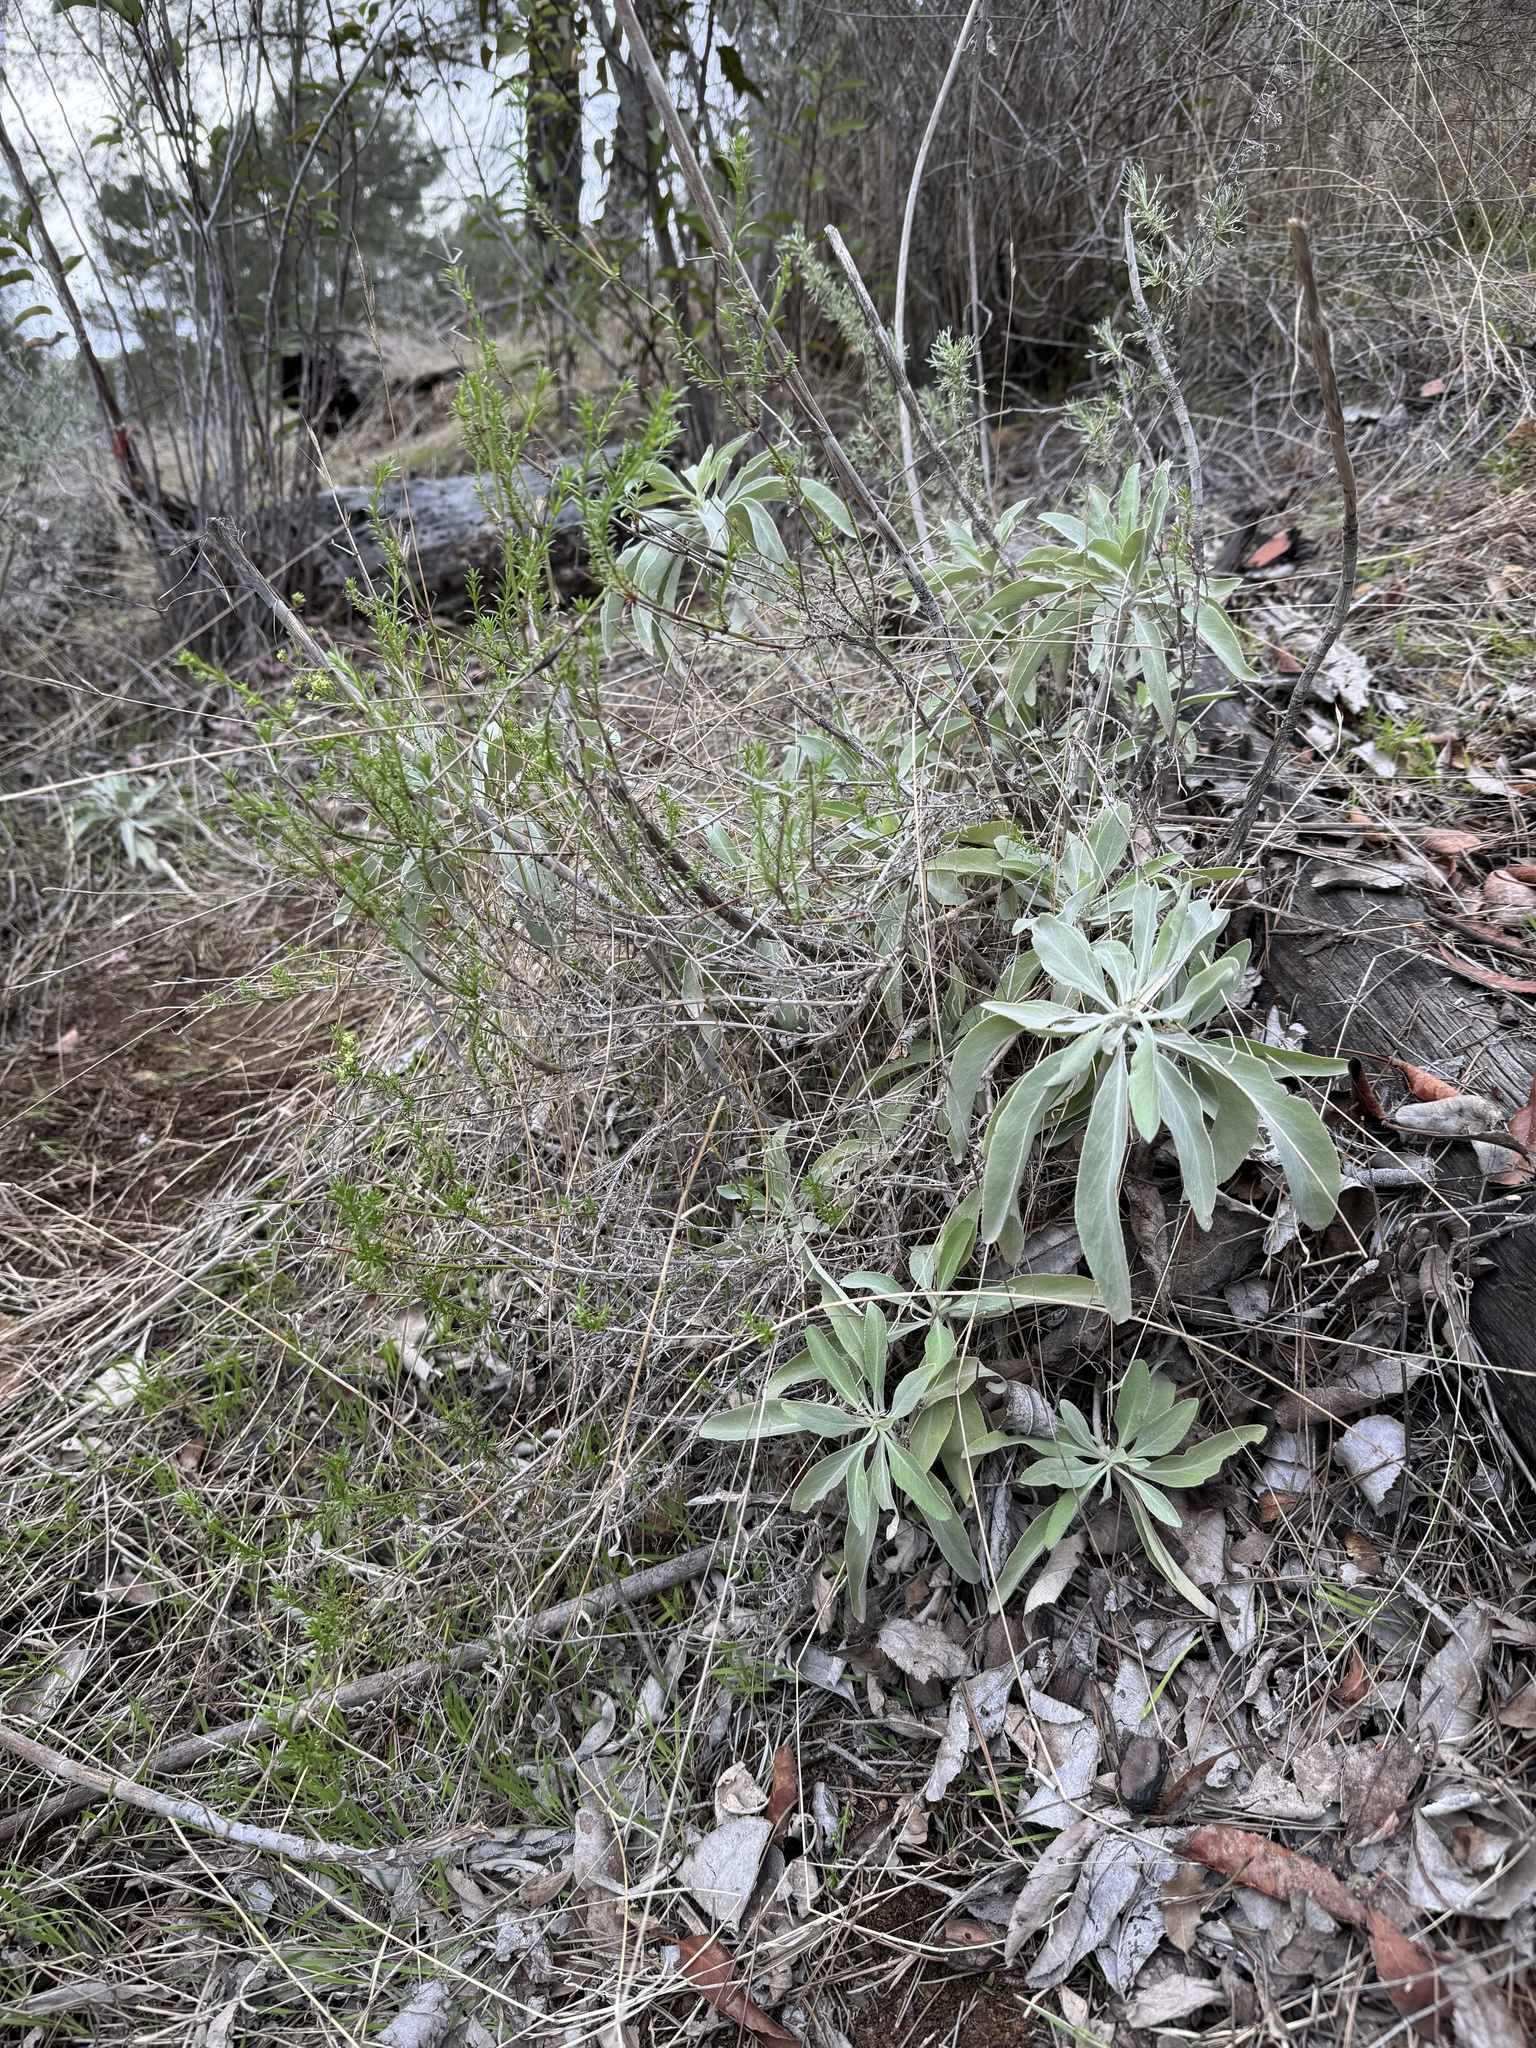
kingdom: Plantae
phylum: Tracheophyta
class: Magnoliopsida
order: Gentianales
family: Rubiaceae
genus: Galium
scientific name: Galium angustifolium
